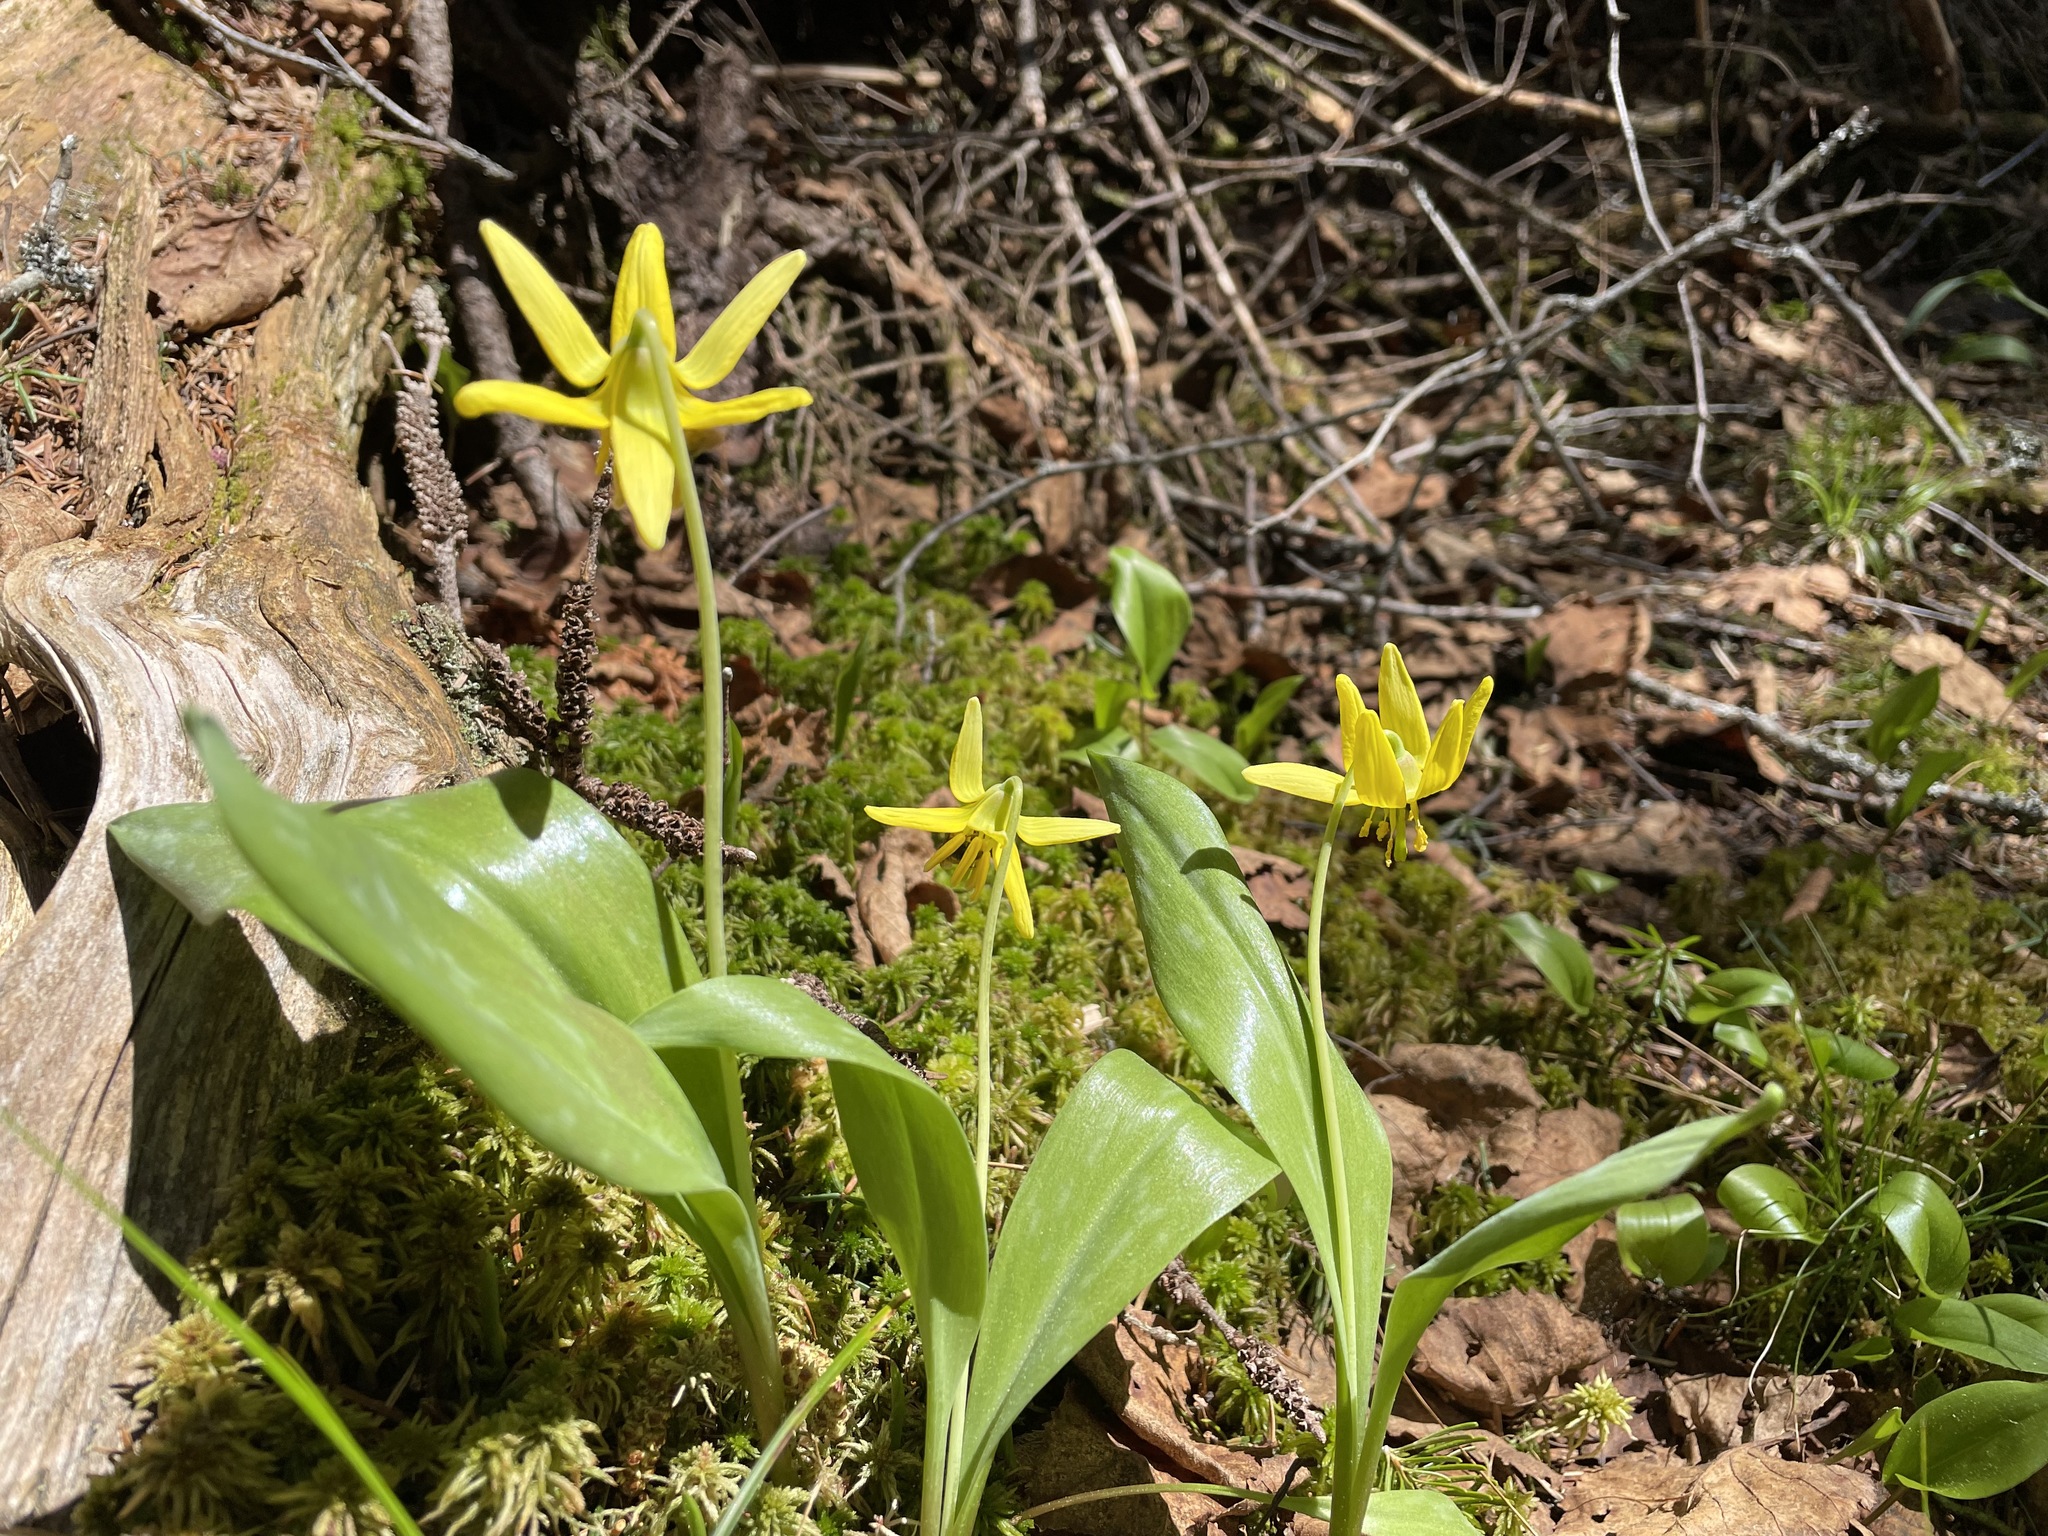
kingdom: Plantae
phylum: Tracheophyta
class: Liliopsida
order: Liliales
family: Liliaceae
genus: Erythronium
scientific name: Erythronium americanum
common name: Yellow adder's-tongue
